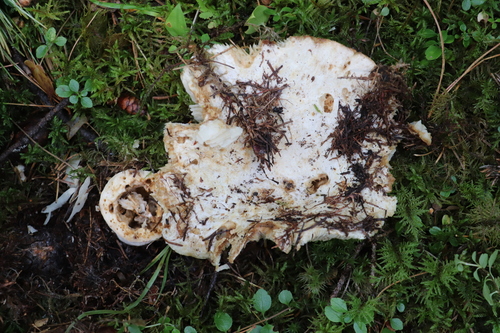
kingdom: Fungi
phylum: Basidiomycota
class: Agaricomycetes
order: Russulales
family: Russulaceae
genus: Russula
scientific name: Russula delica
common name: Milk white brittlegill
